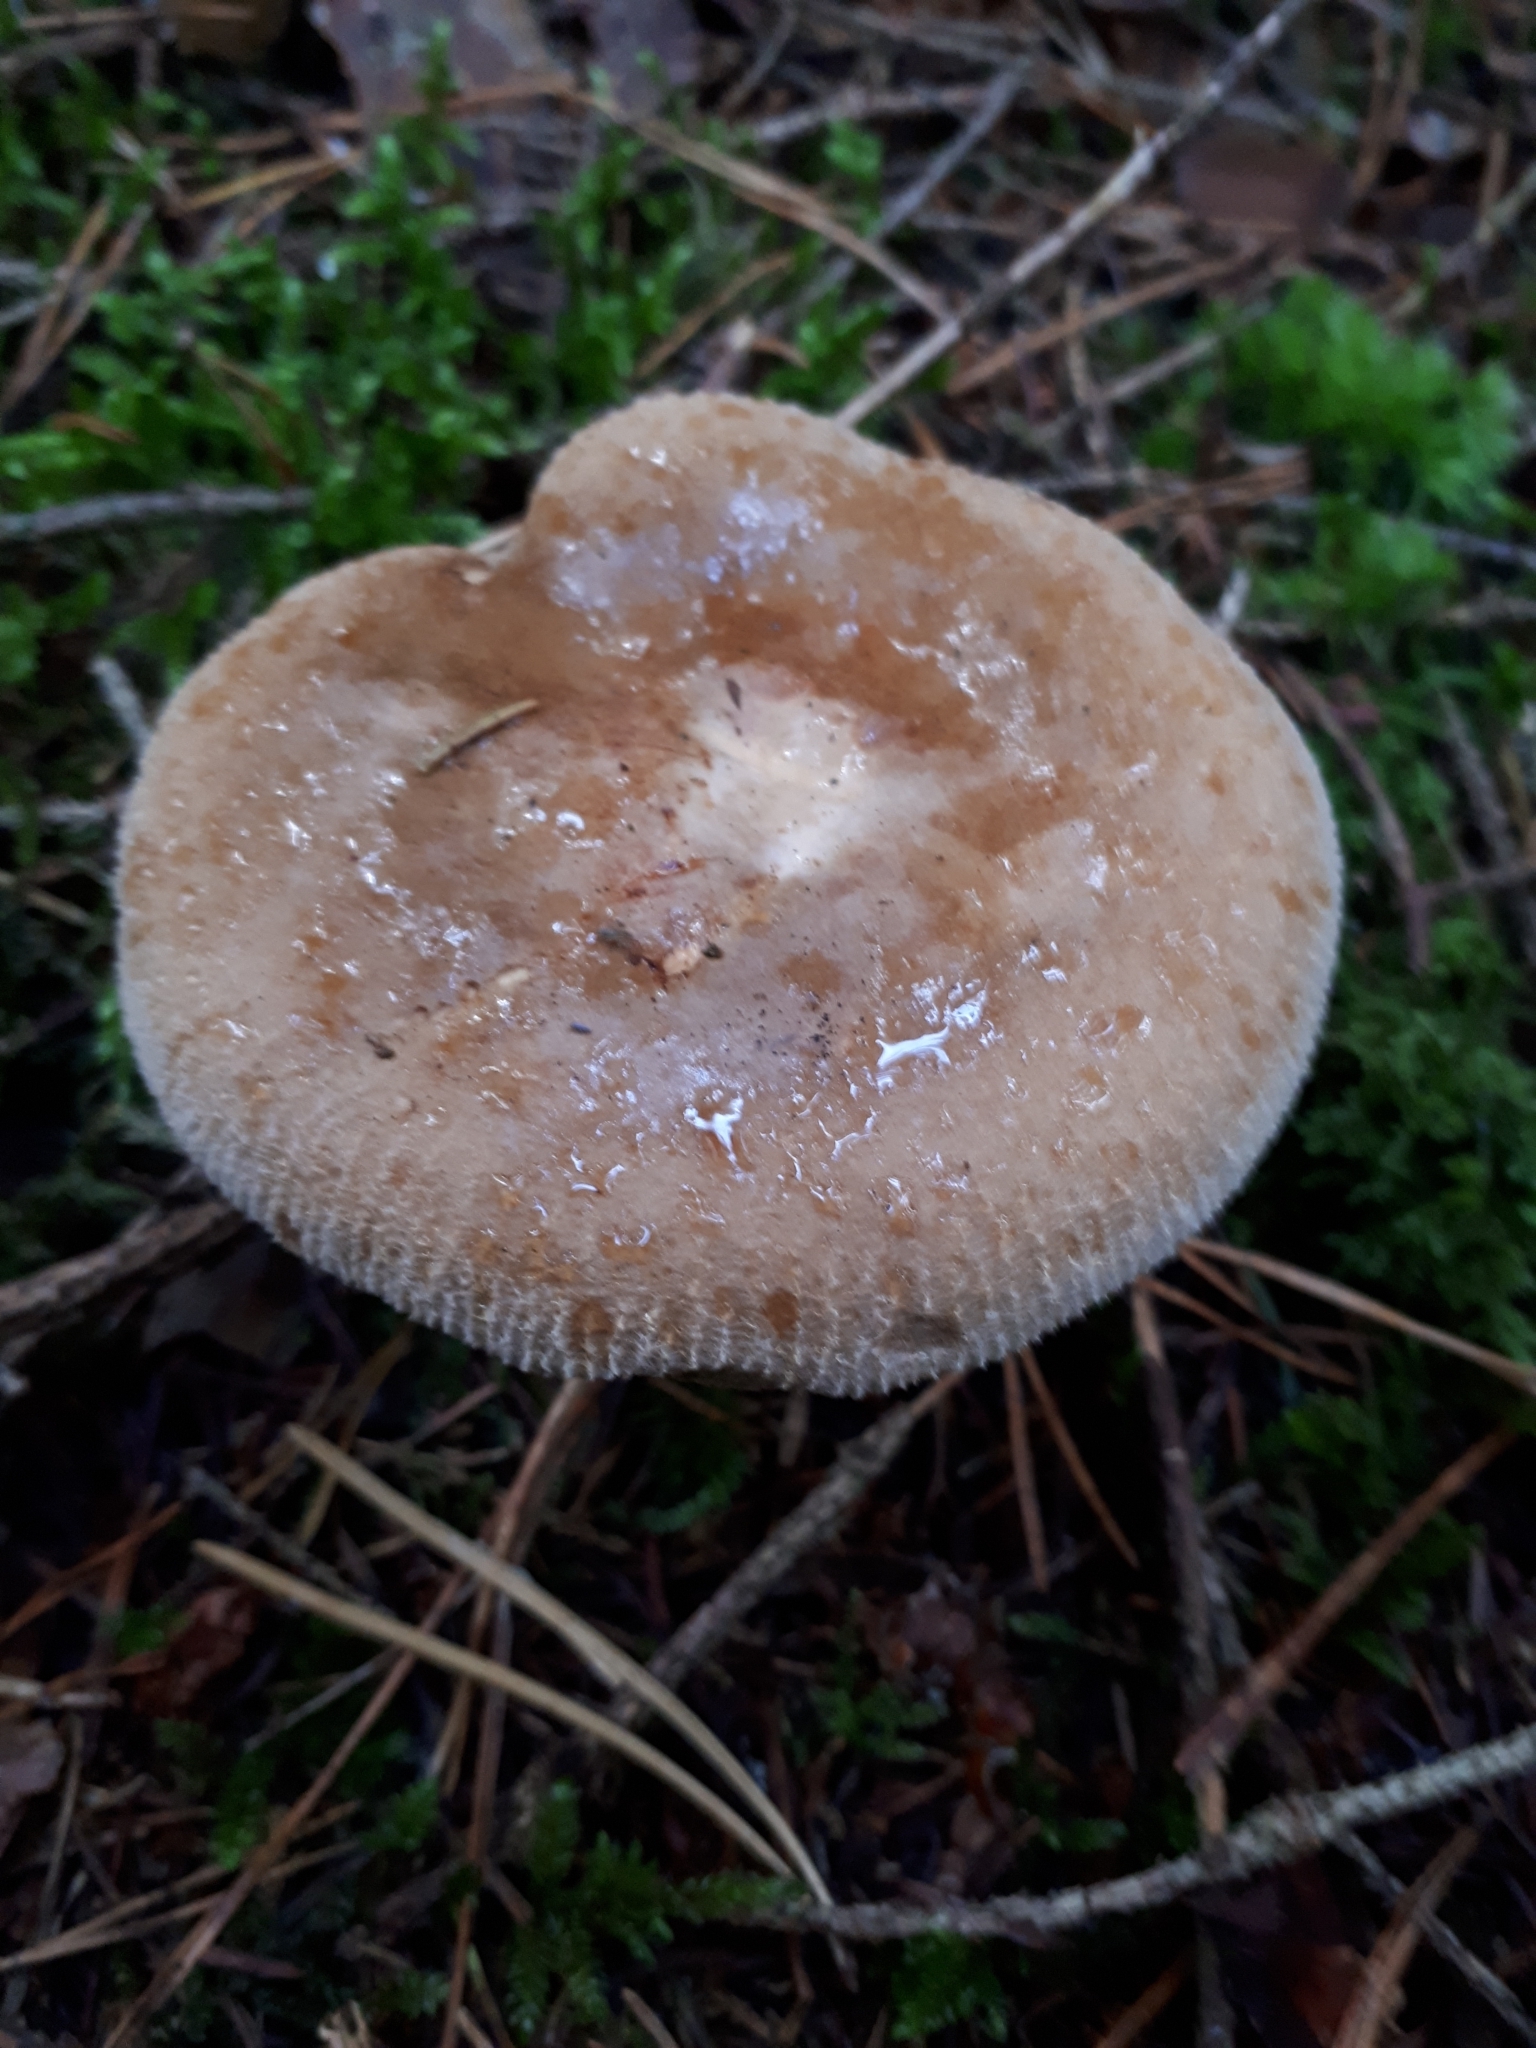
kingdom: Fungi
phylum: Basidiomycota
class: Agaricomycetes
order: Boletales
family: Paxillaceae
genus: Paxillus
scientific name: Paxillus involutus
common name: Brown roll rim
